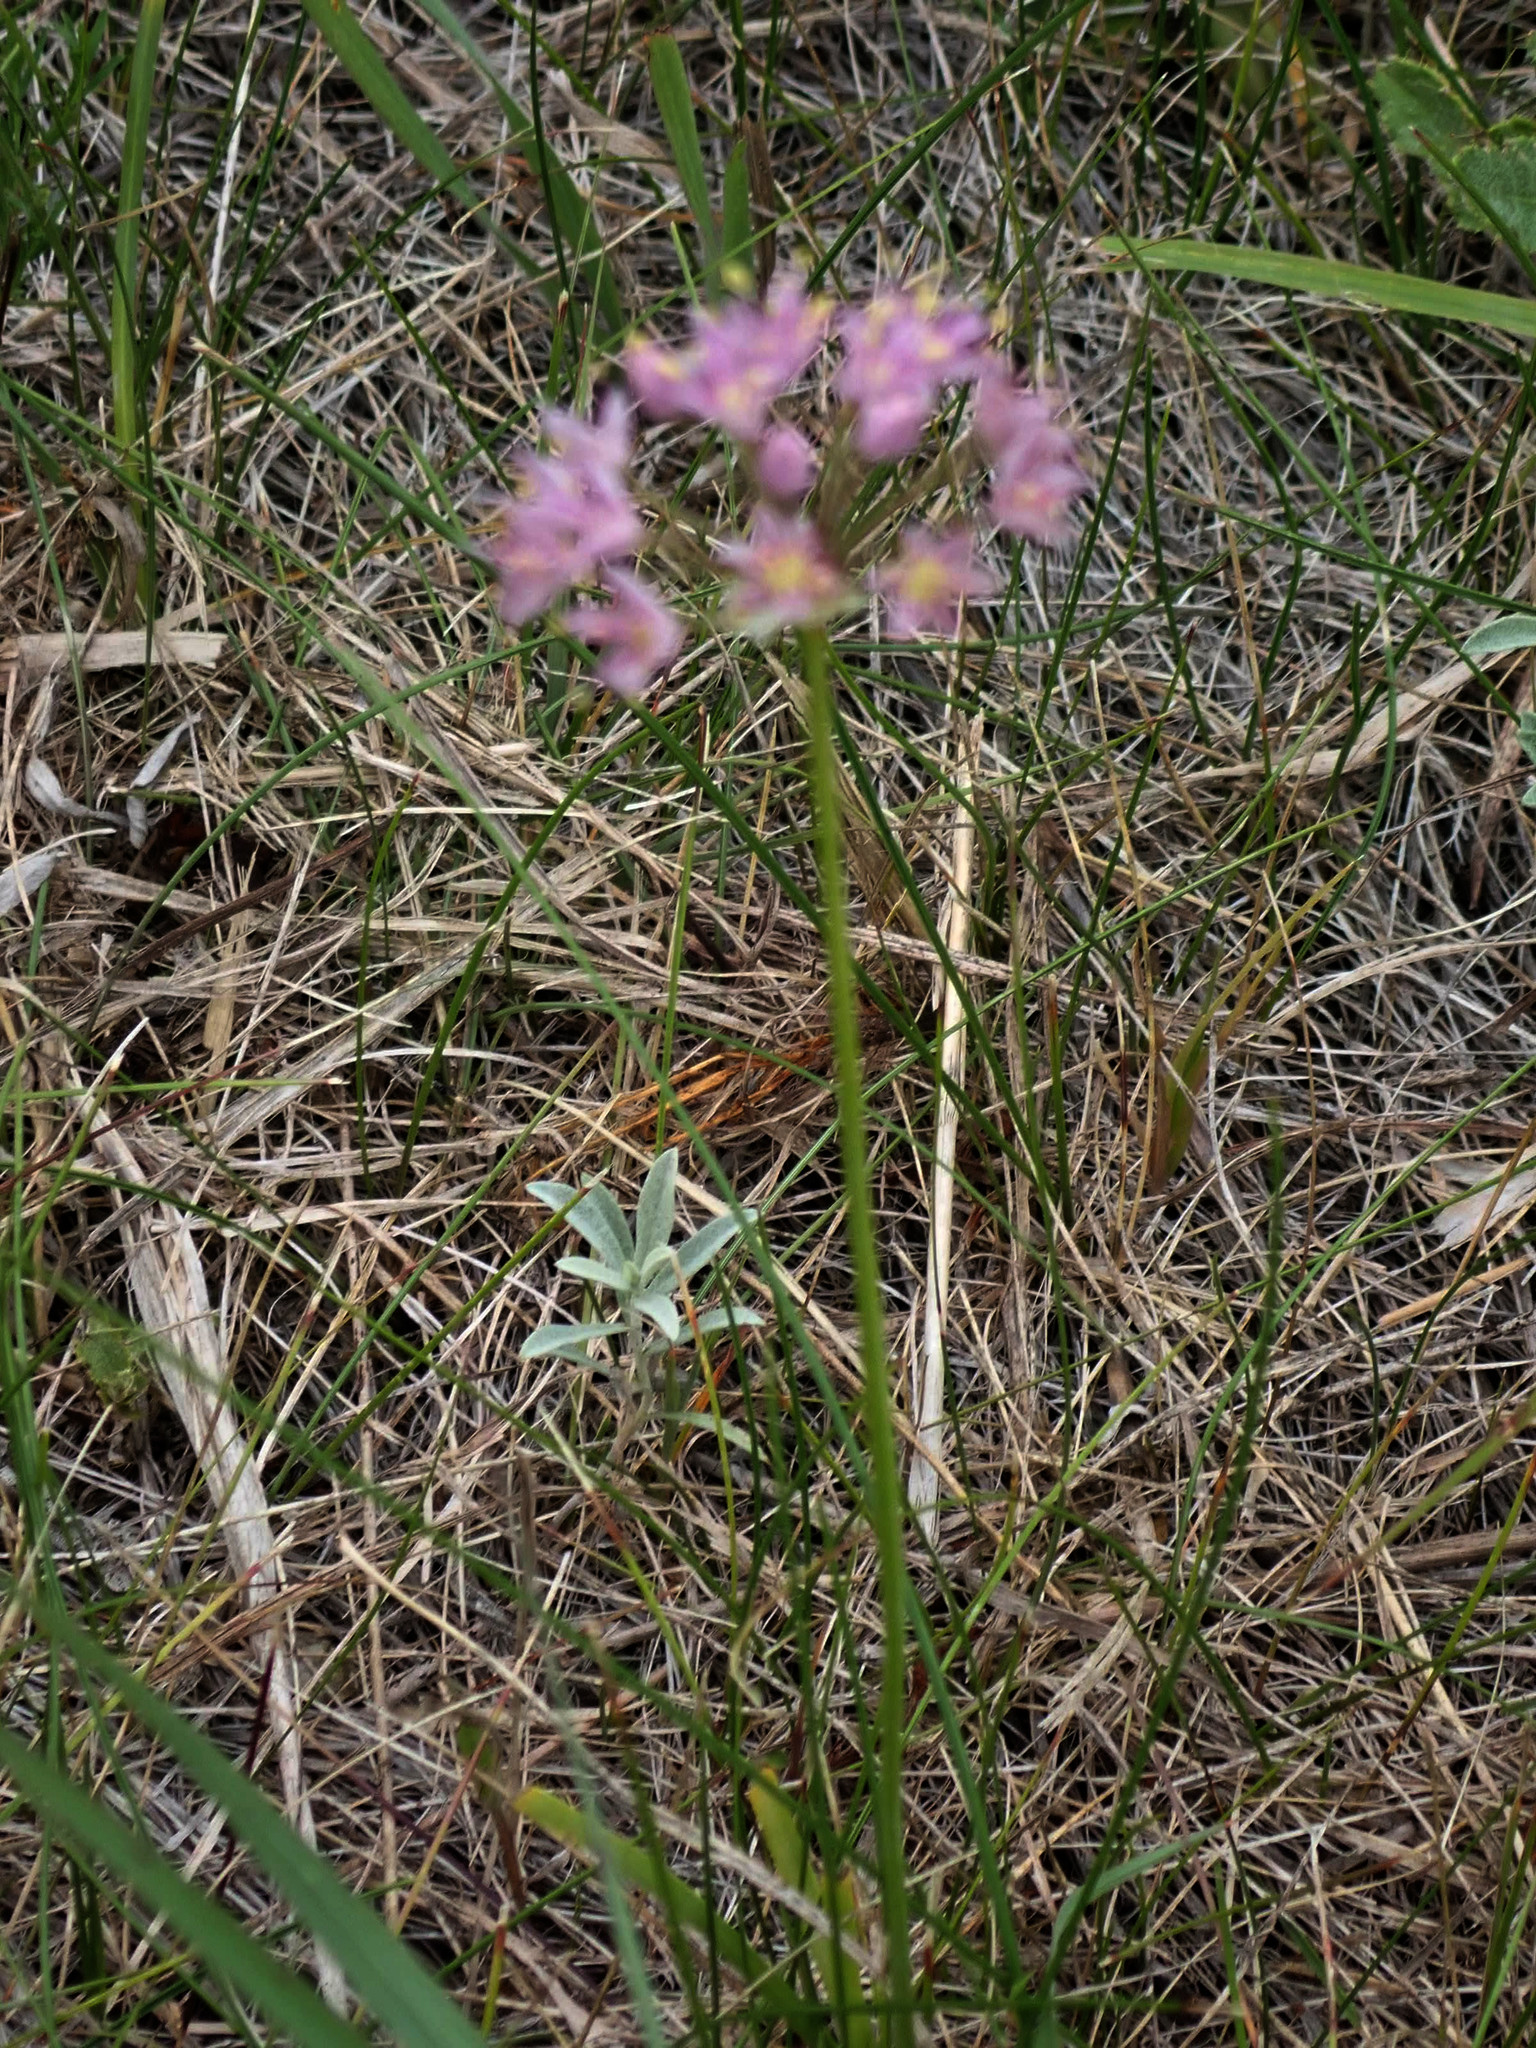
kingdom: Plantae
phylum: Tracheophyta
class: Liliopsida
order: Asparagales
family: Amaryllidaceae
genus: Allium
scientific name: Allium stellatum
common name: Autumn onion
